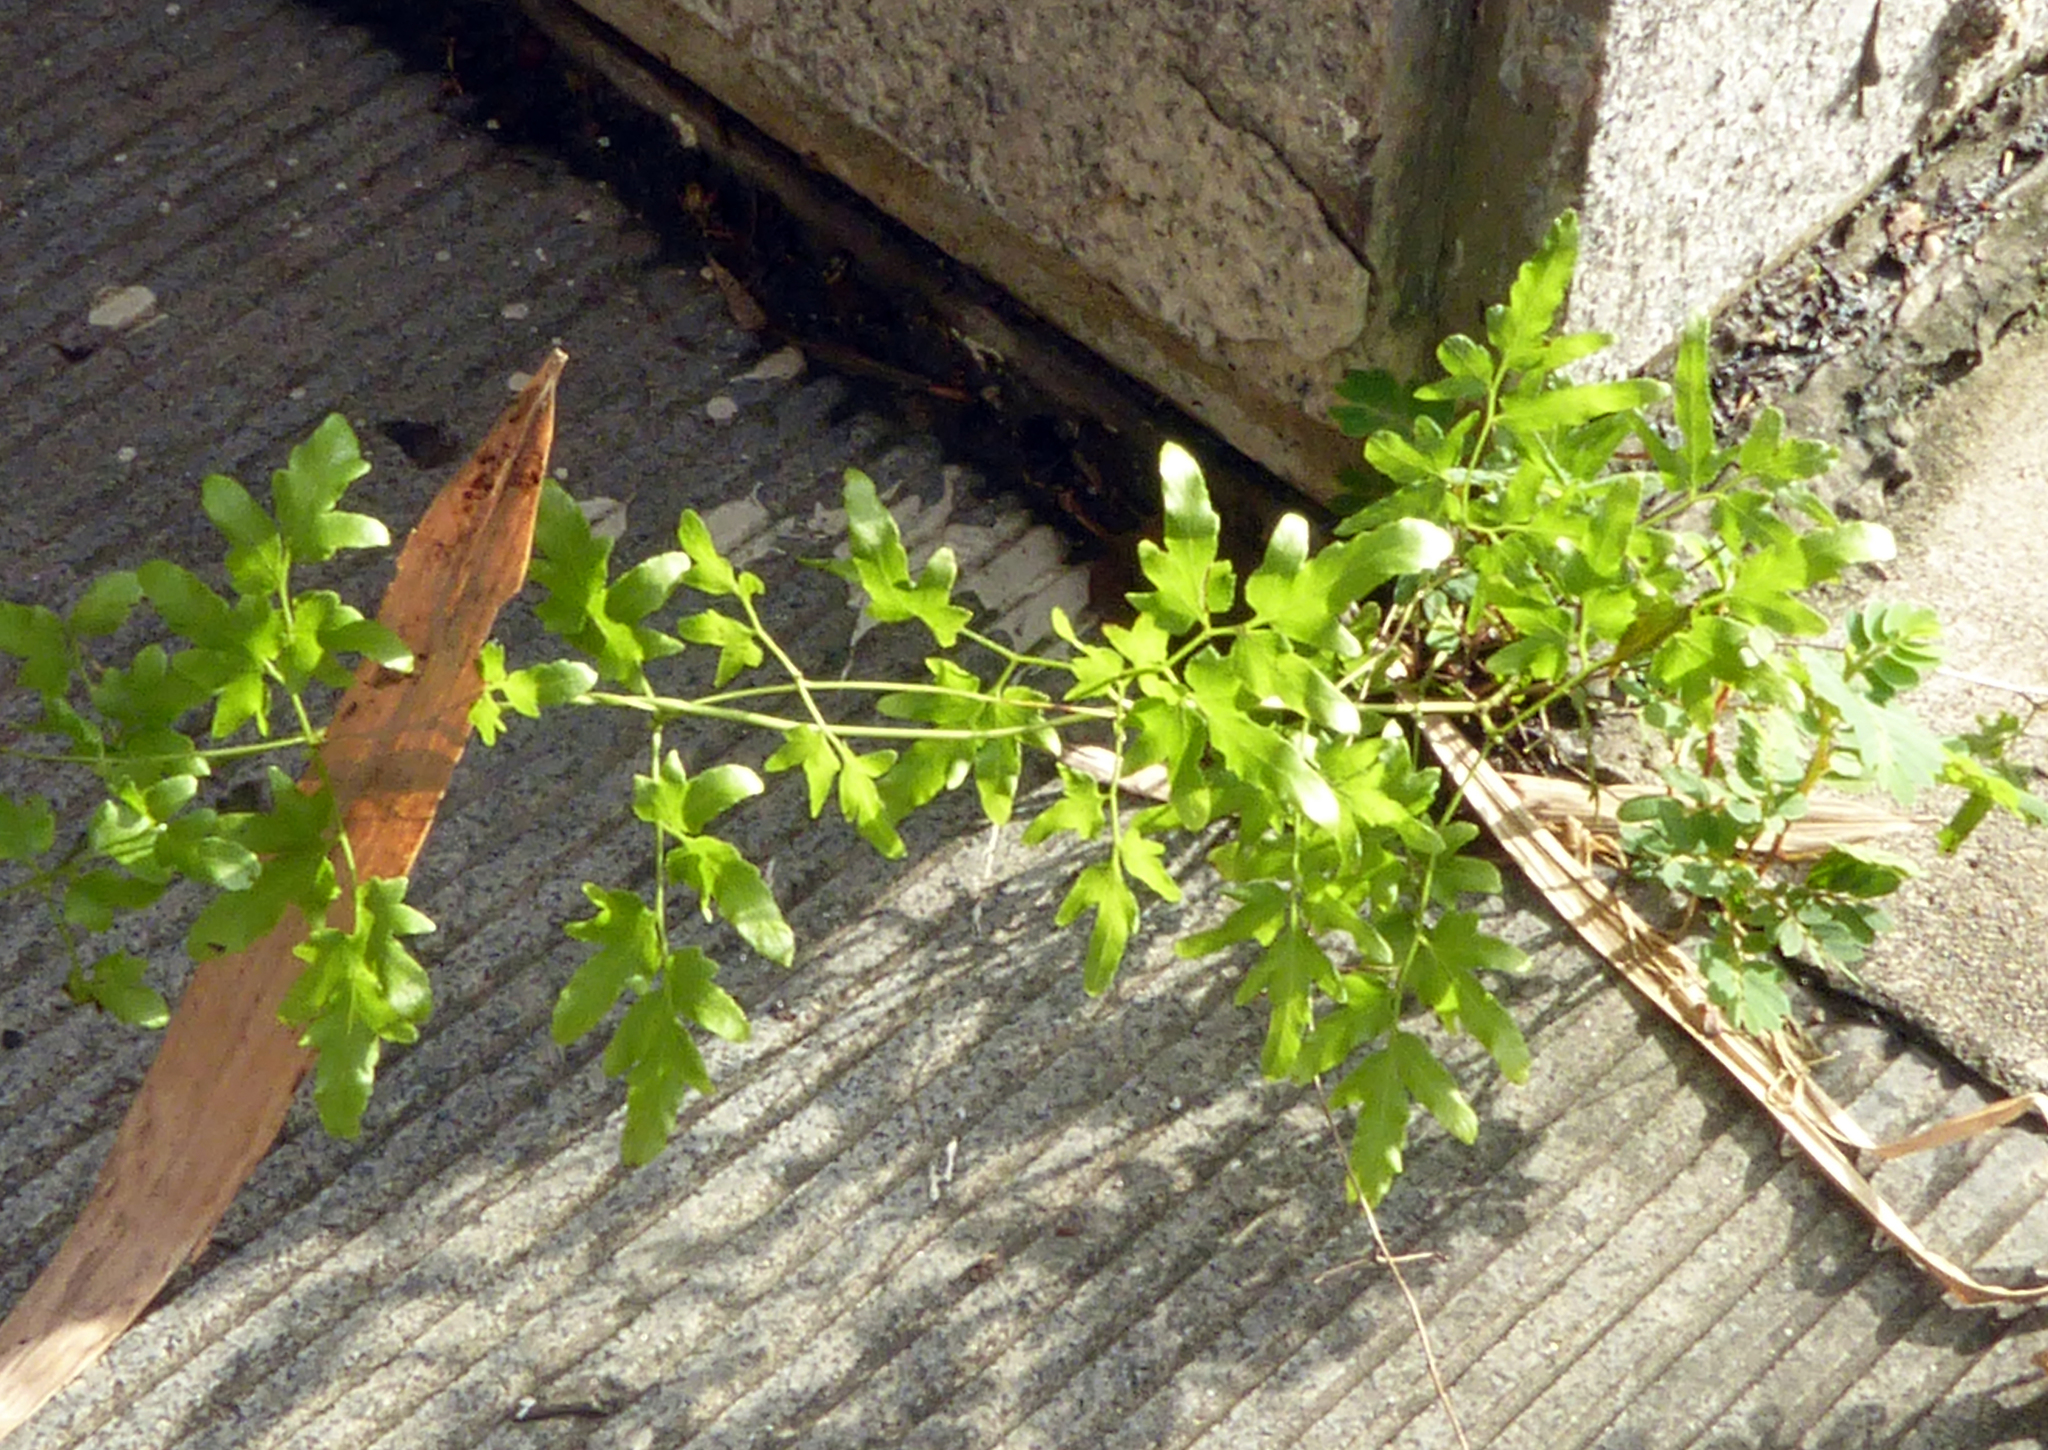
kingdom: Plantae
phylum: Tracheophyta
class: Polypodiopsida
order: Schizaeales
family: Lygodiaceae
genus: Lygodium
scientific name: Lygodium japonicum
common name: Japanese climbing fern
